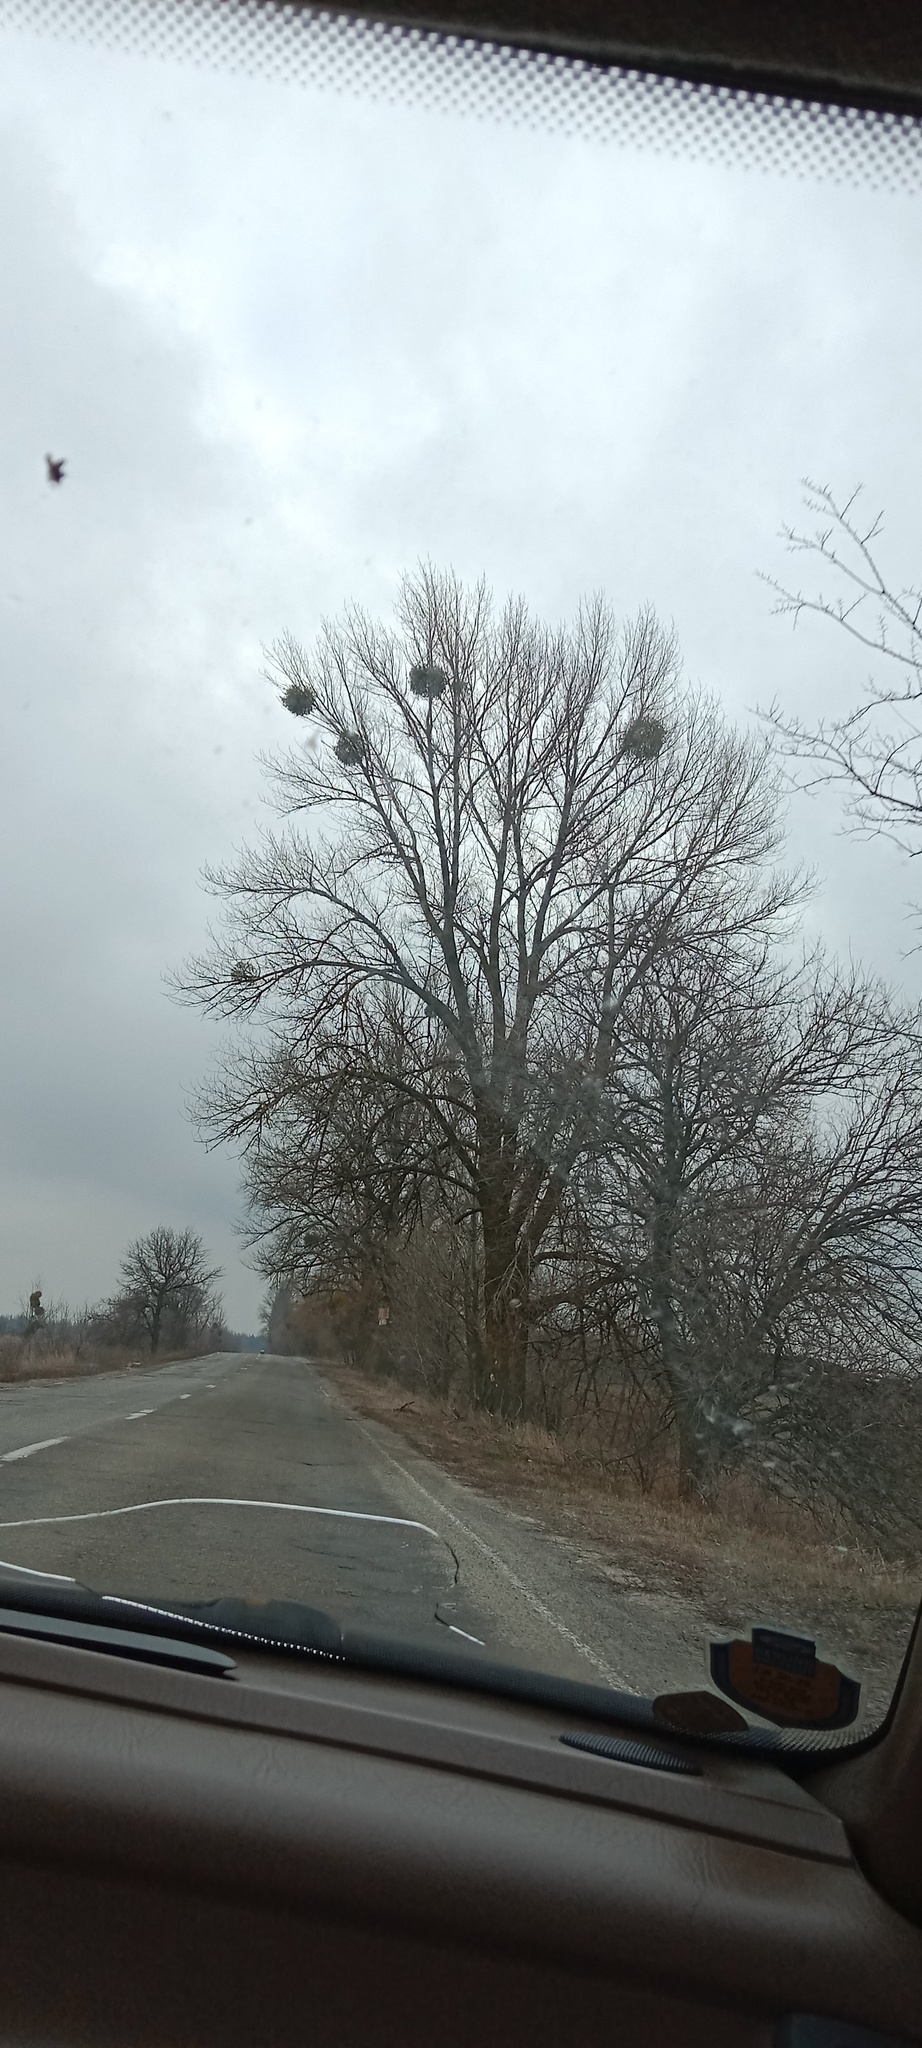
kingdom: Plantae
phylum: Tracheophyta
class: Magnoliopsida
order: Santalales
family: Viscaceae
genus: Viscum
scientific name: Viscum album
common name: Mistletoe
